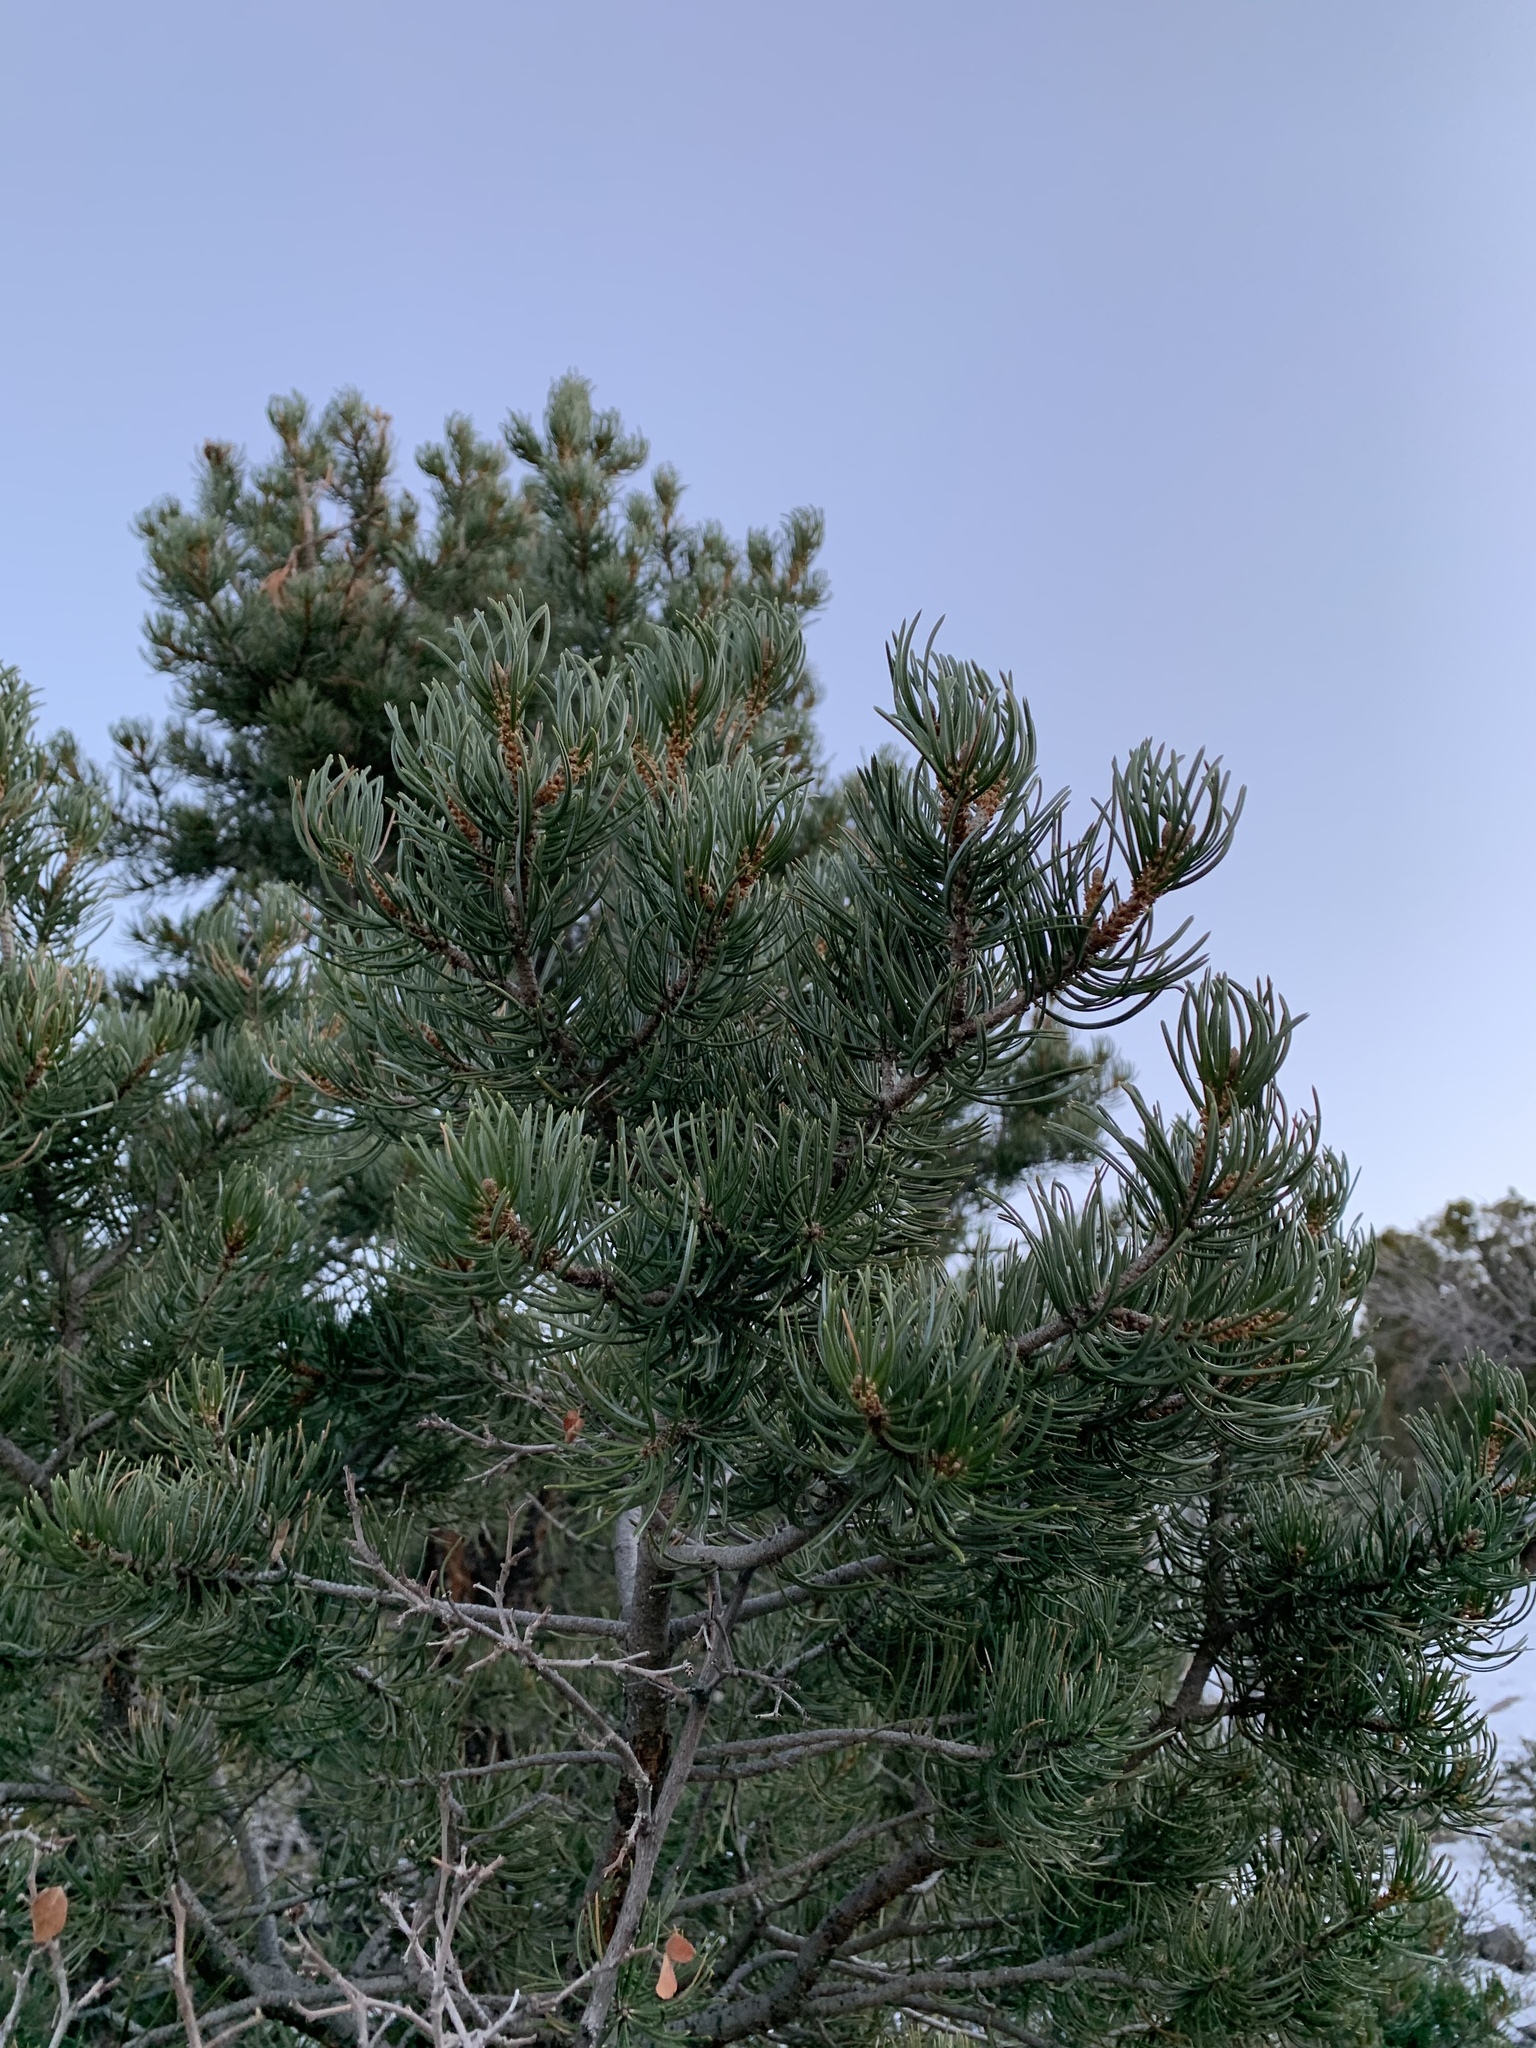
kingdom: Plantae
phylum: Tracheophyta
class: Pinopsida
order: Pinales
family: Pinaceae
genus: Pinus
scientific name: Pinus edulis
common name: Colorado pinyon
